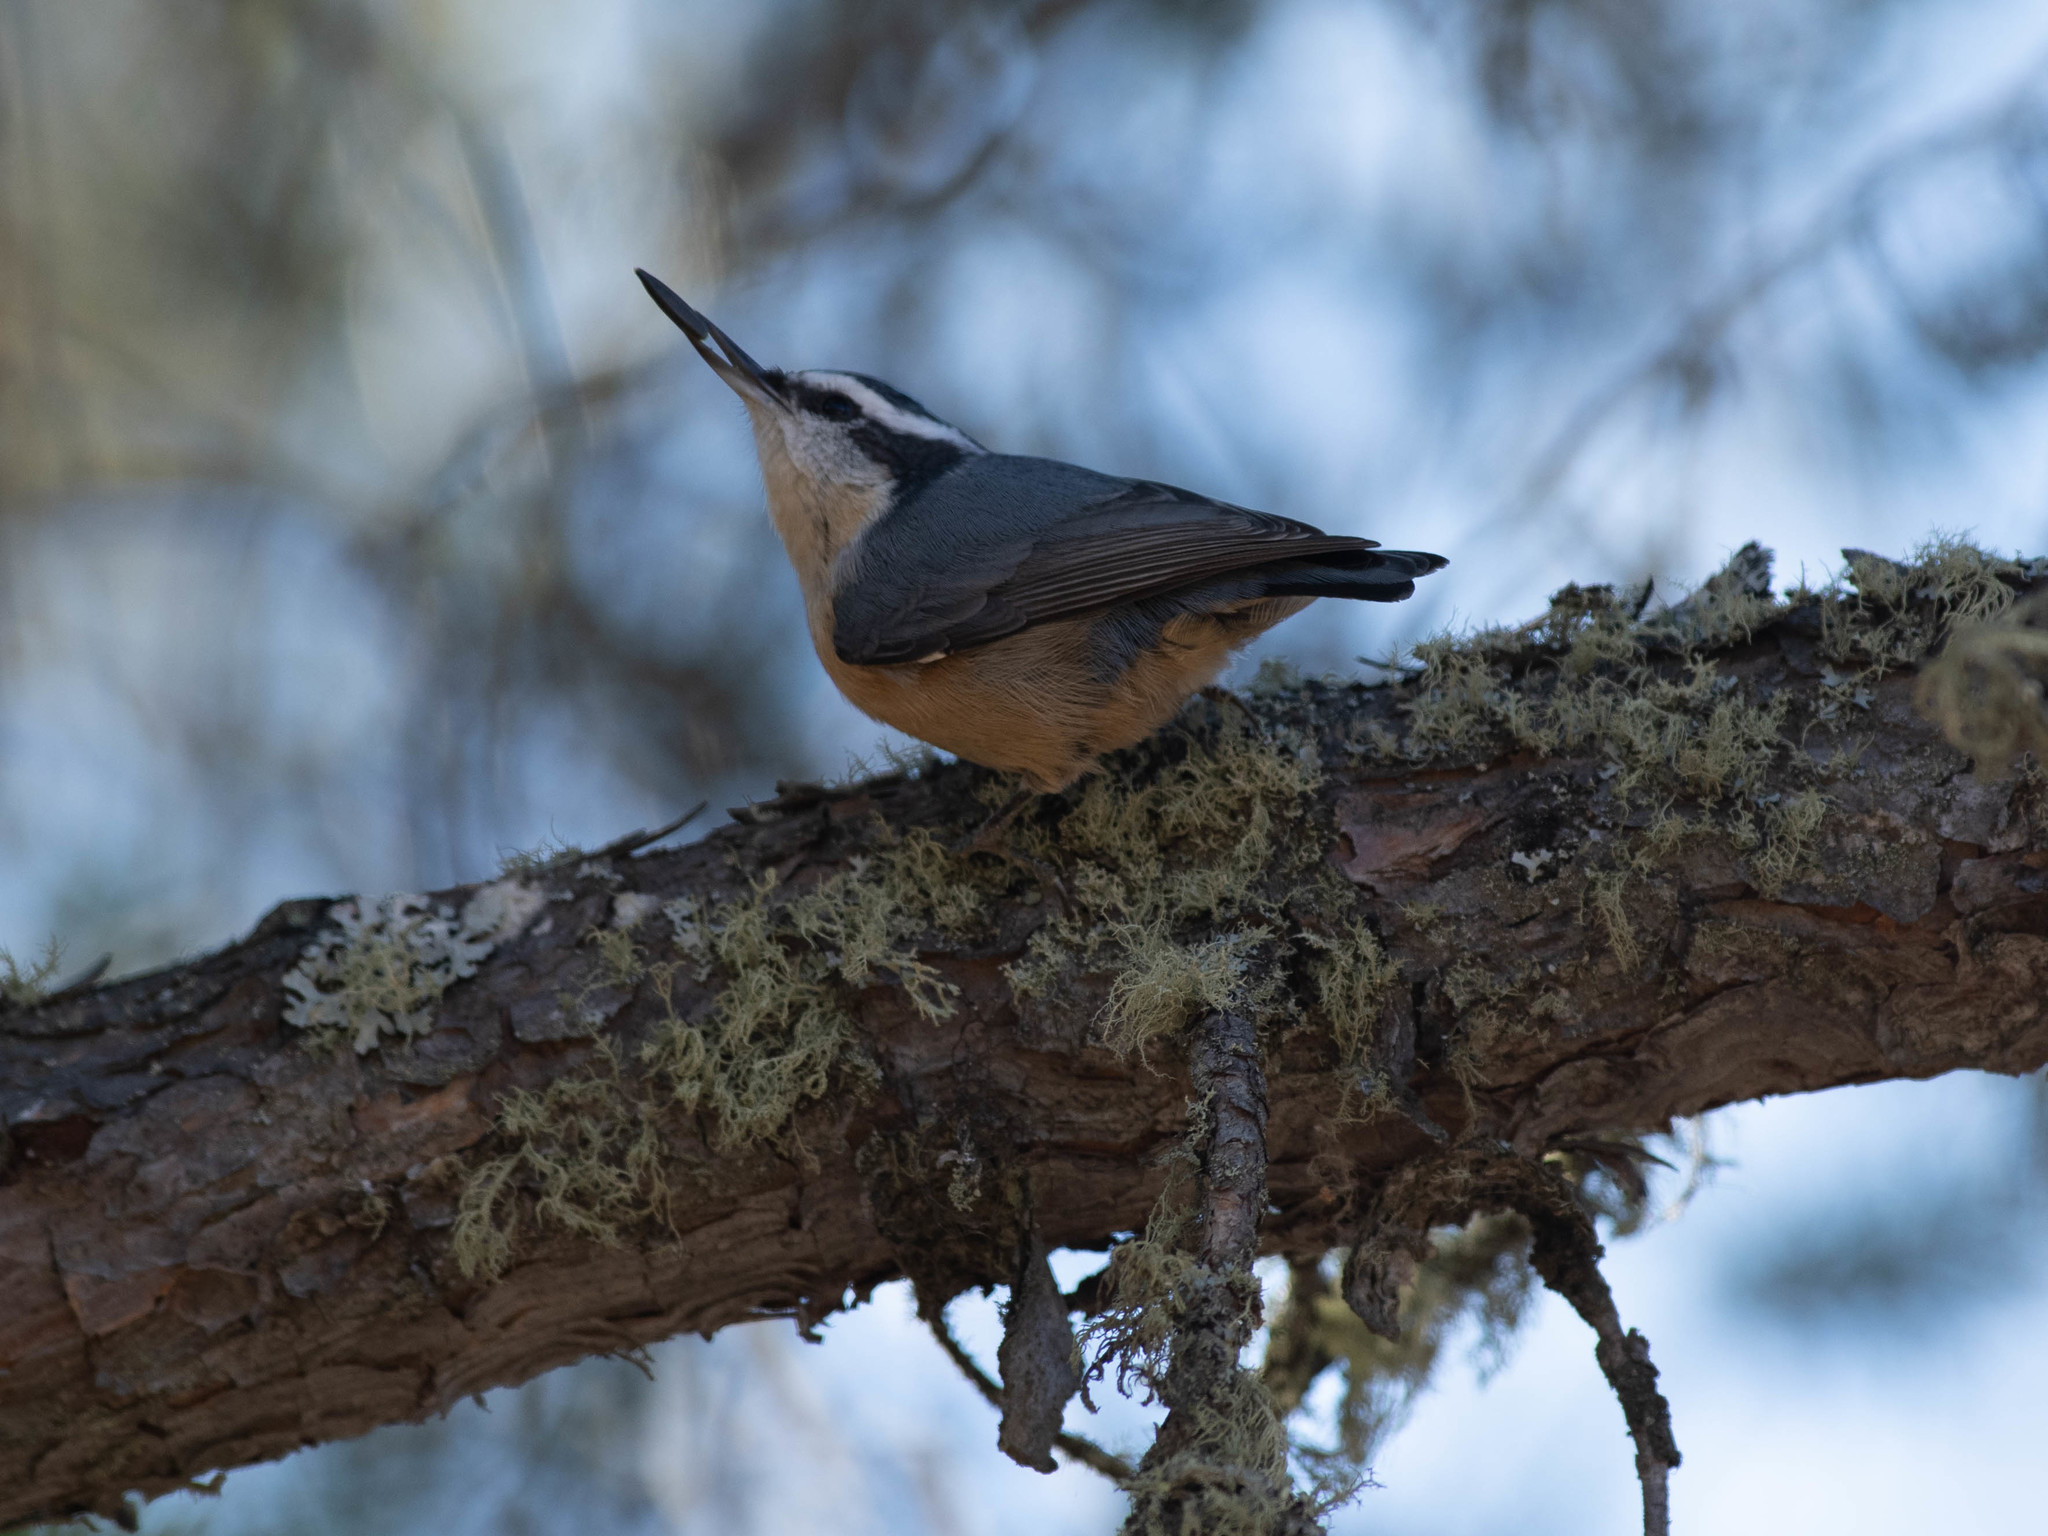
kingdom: Animalia
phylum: Chordata
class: Aves
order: Passeriformes
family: Sittidae
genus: Sitta
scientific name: Sitta canadensis
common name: Red-breasted nuthatch
